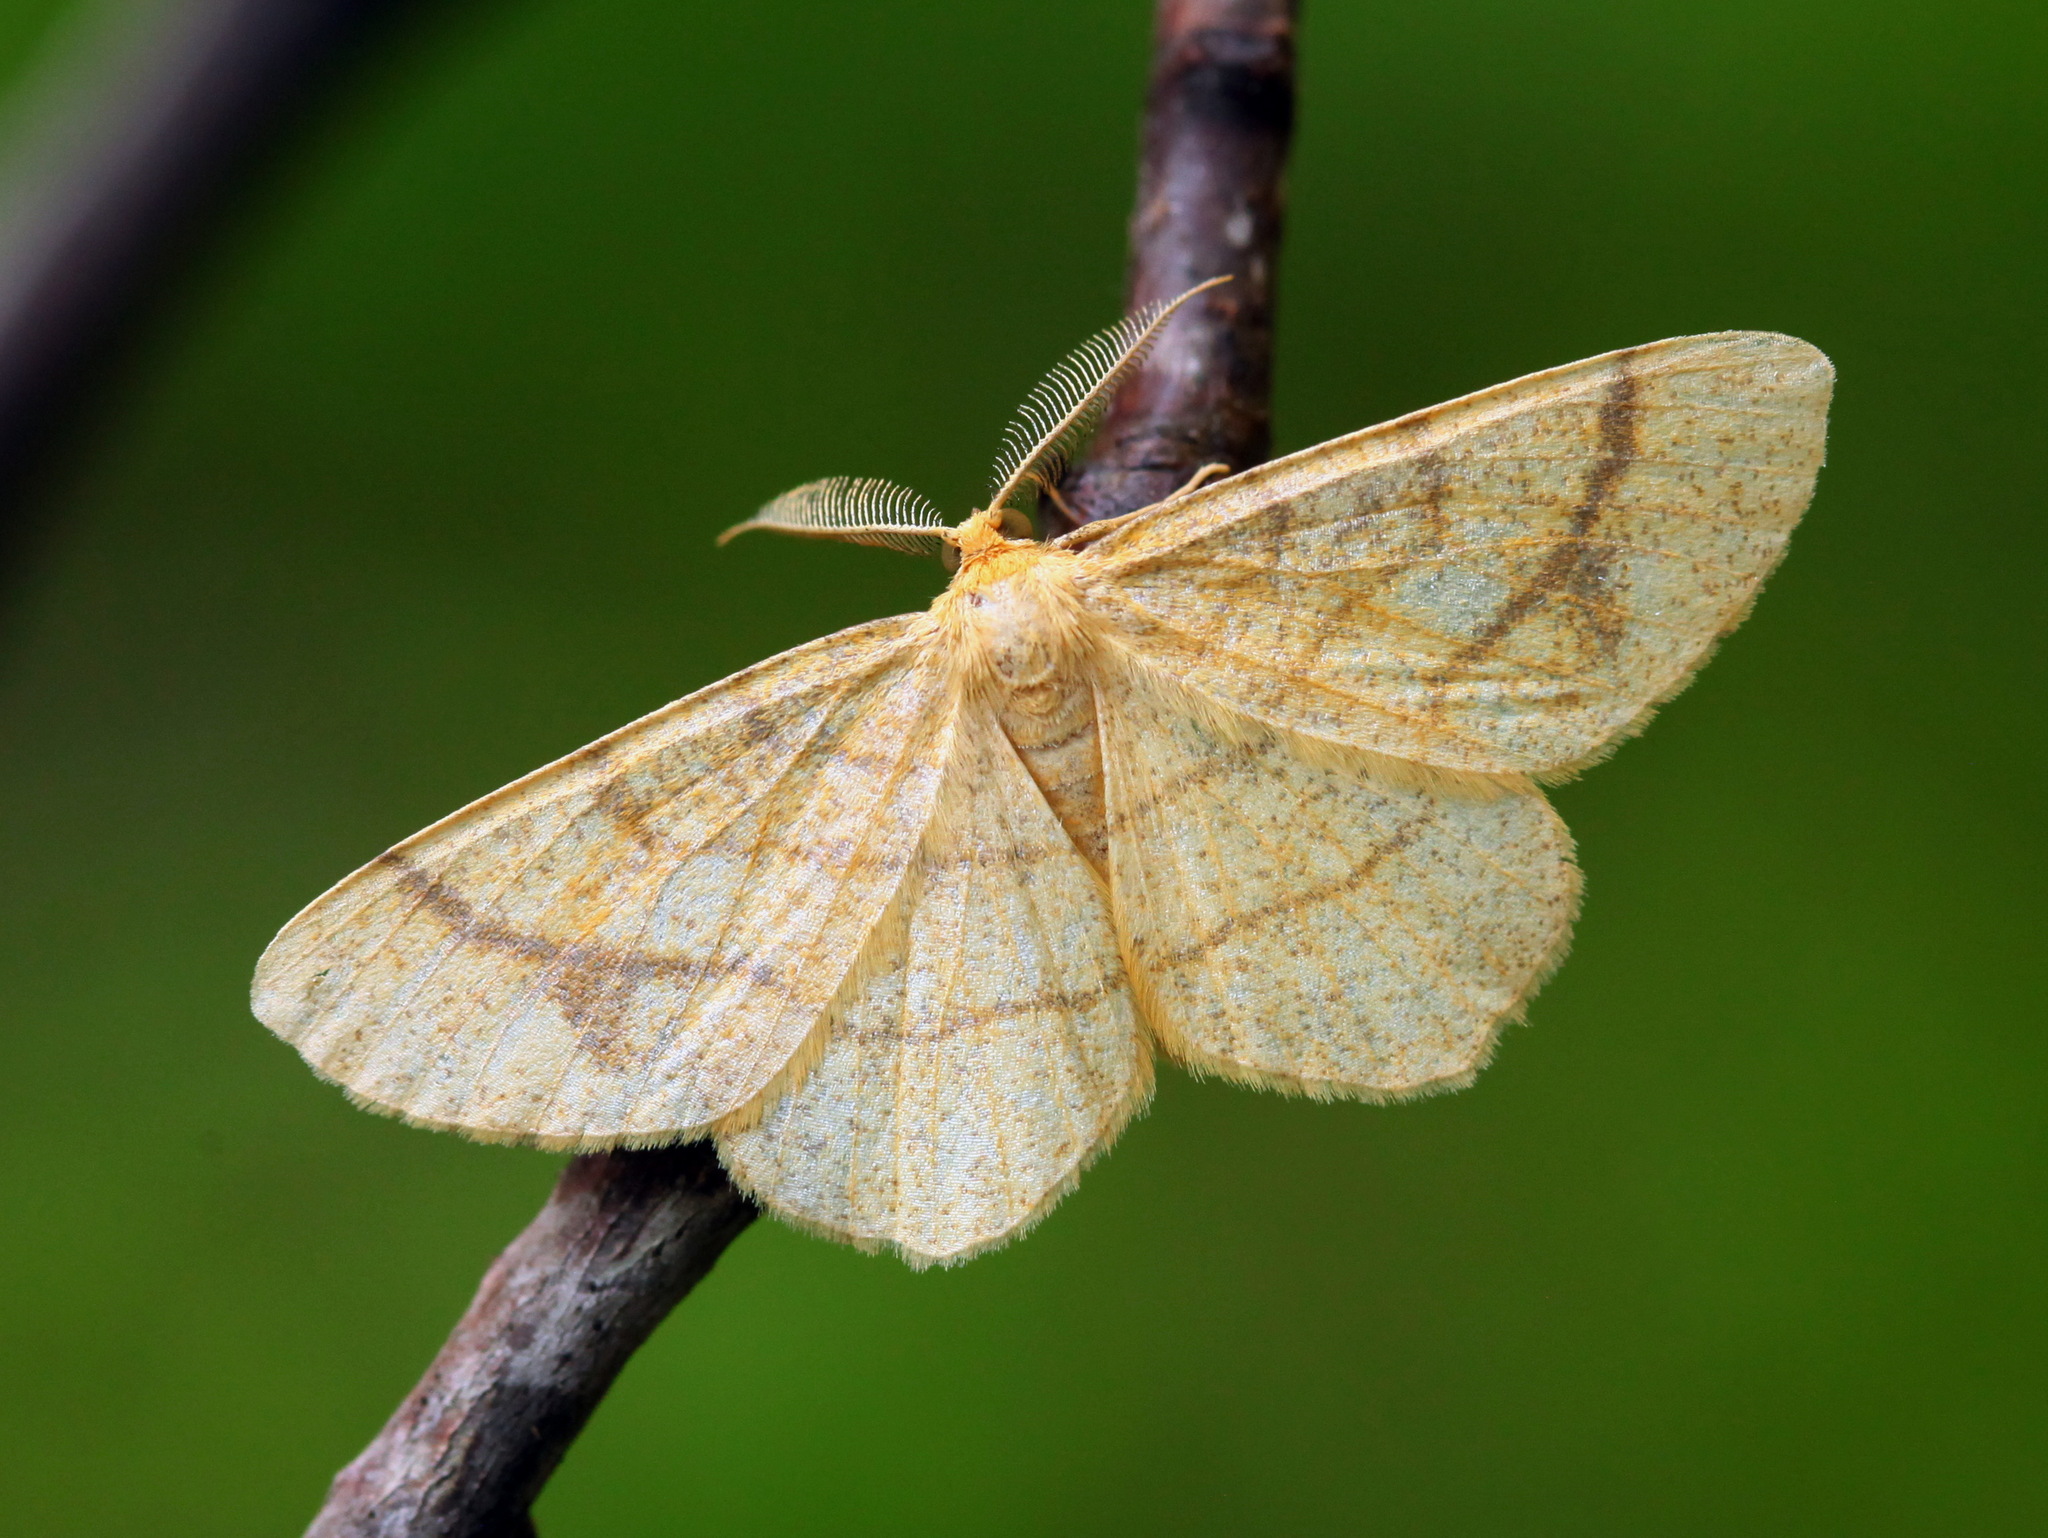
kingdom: Animalia
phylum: Arthropoda
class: Insecta
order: Lepidoptera
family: Geometridae
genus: Exangerona
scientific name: Exangerona prattiaria
